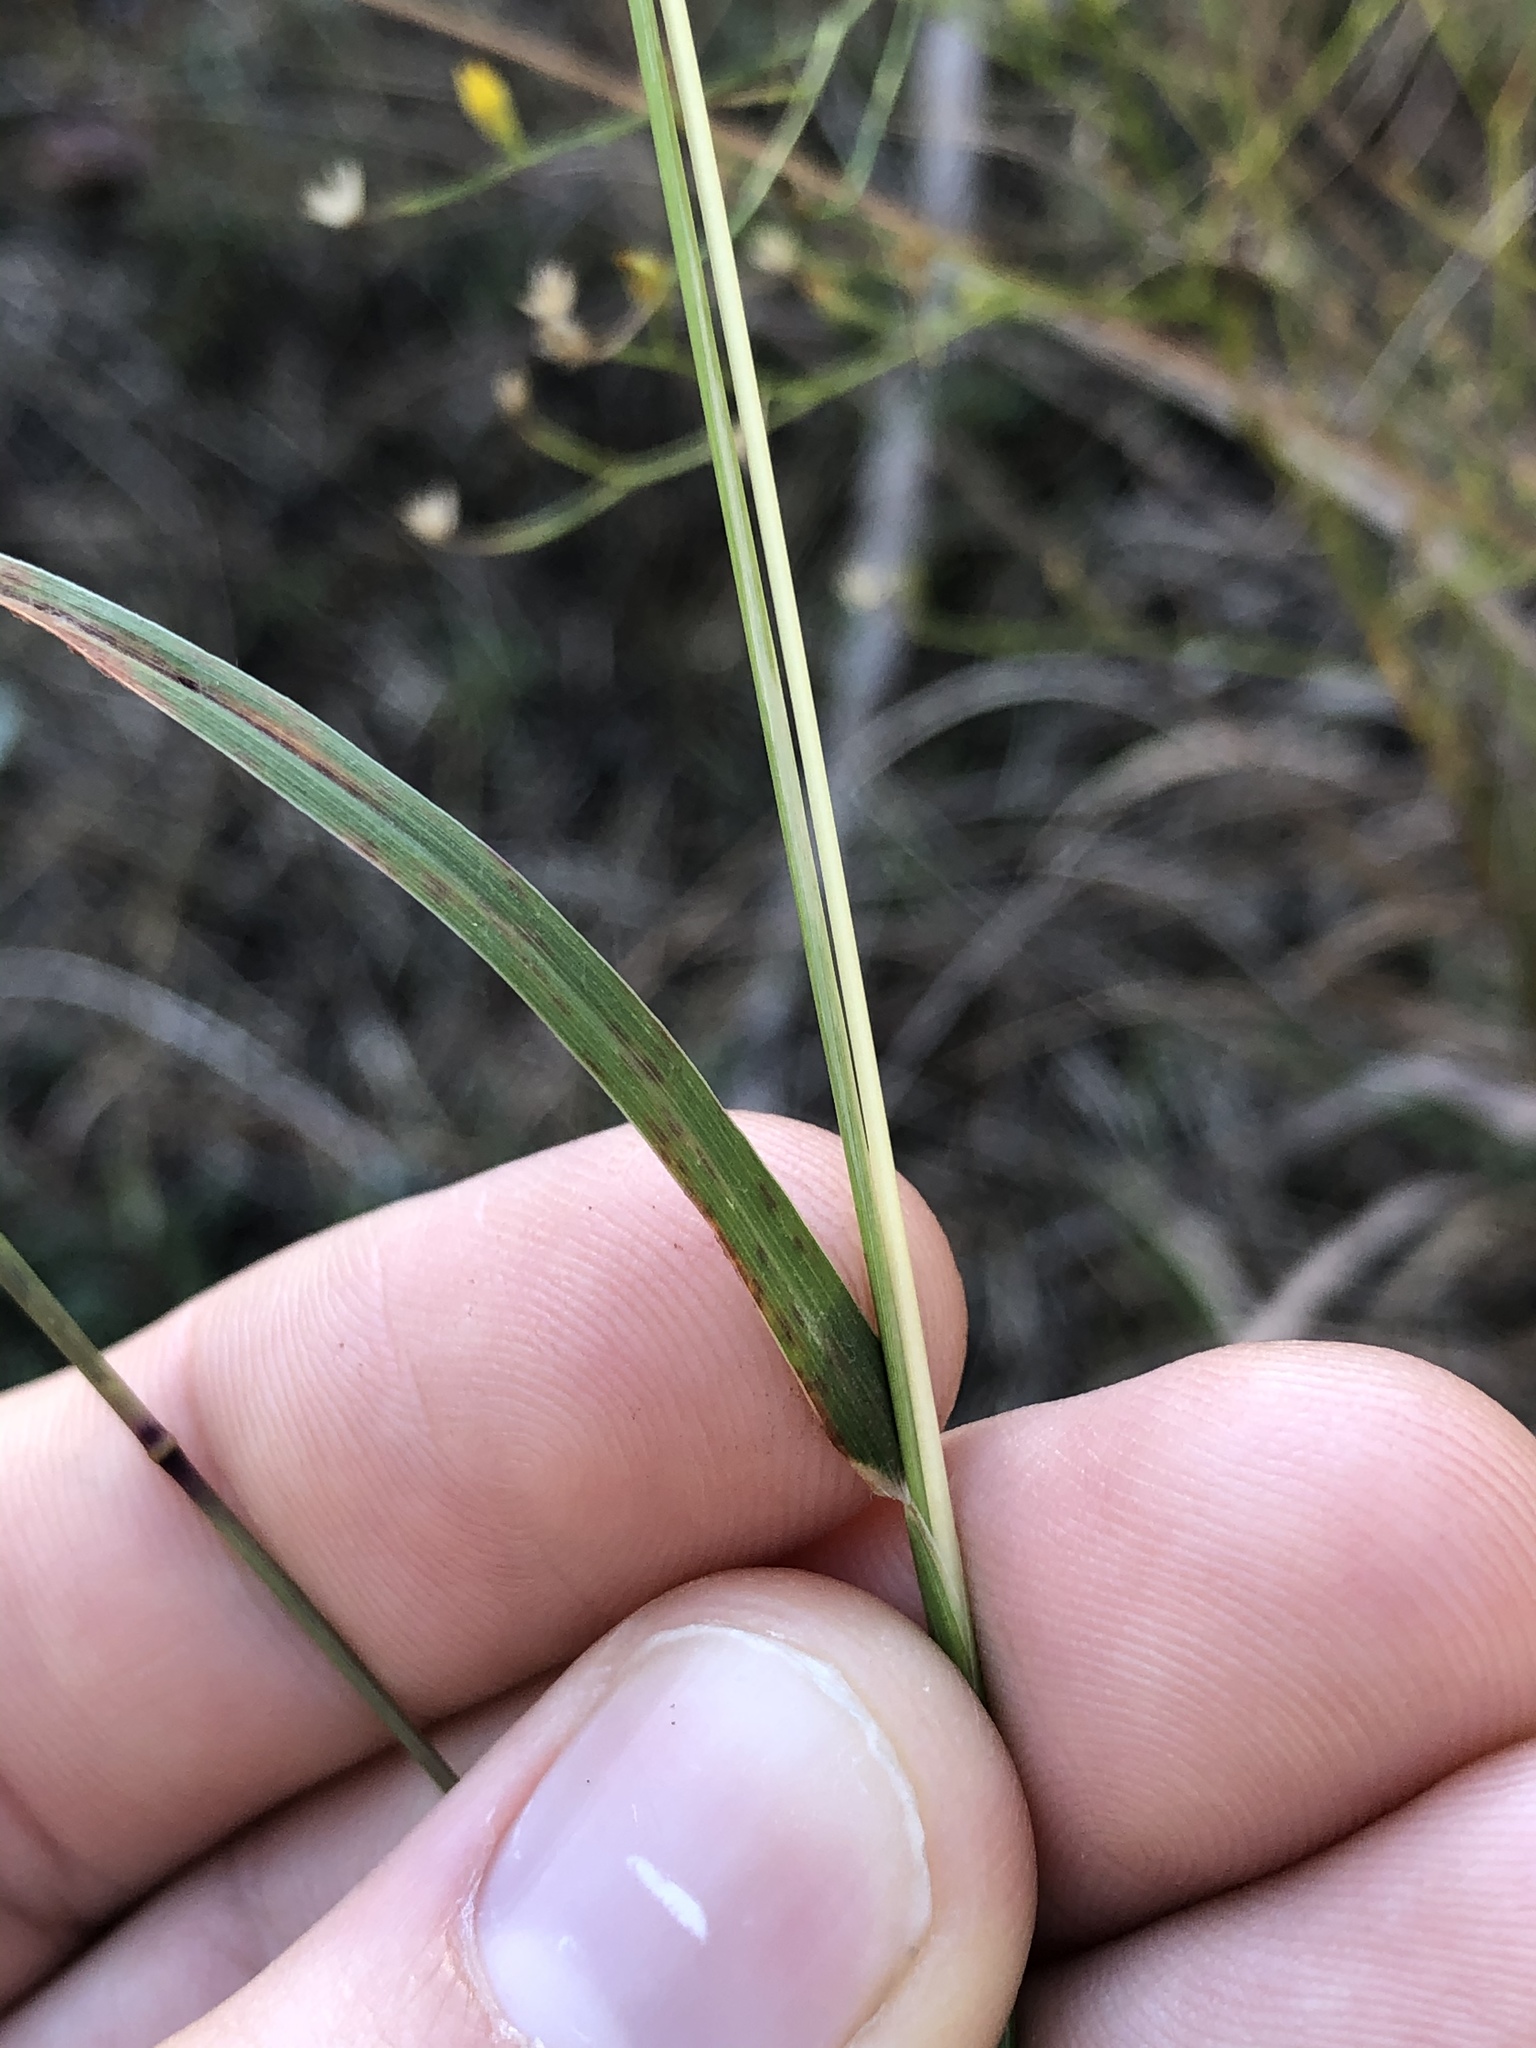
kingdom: Plantae
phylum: Tracheophyta
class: Liliopsida
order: Poales
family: Poaceae
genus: Bouteloua
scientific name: Bouteloua curtipendula
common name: Side-oats grama
